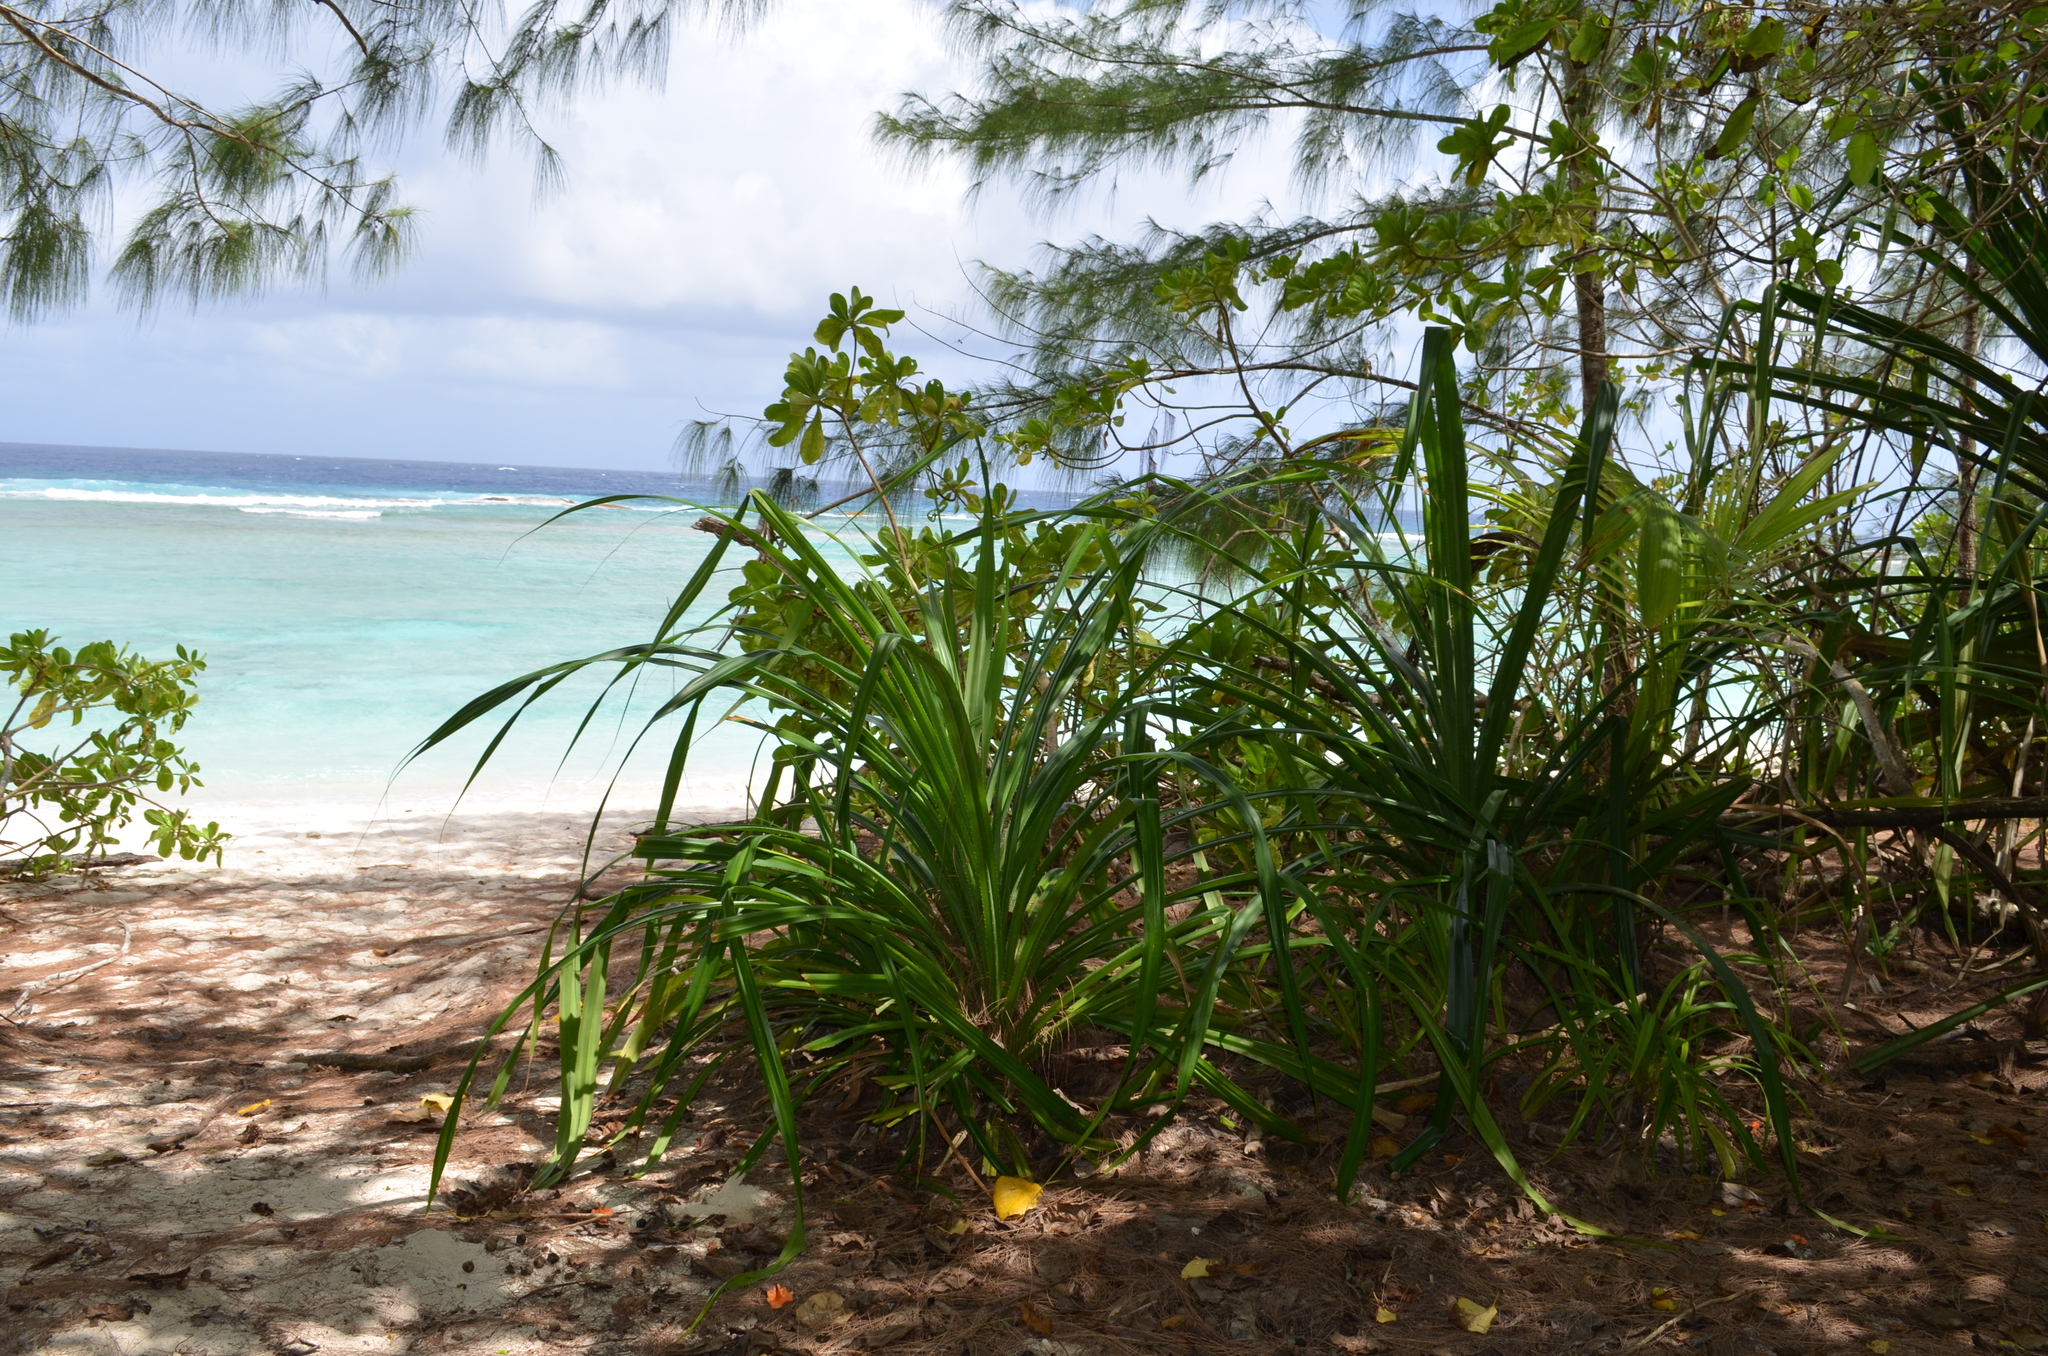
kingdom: Plantae
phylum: Tracheophyta
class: Magnoliopsida
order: Fagales
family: Casuarinaceae
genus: Casuarina
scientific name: Casuarina equisetifolia
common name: Beach sheoak
